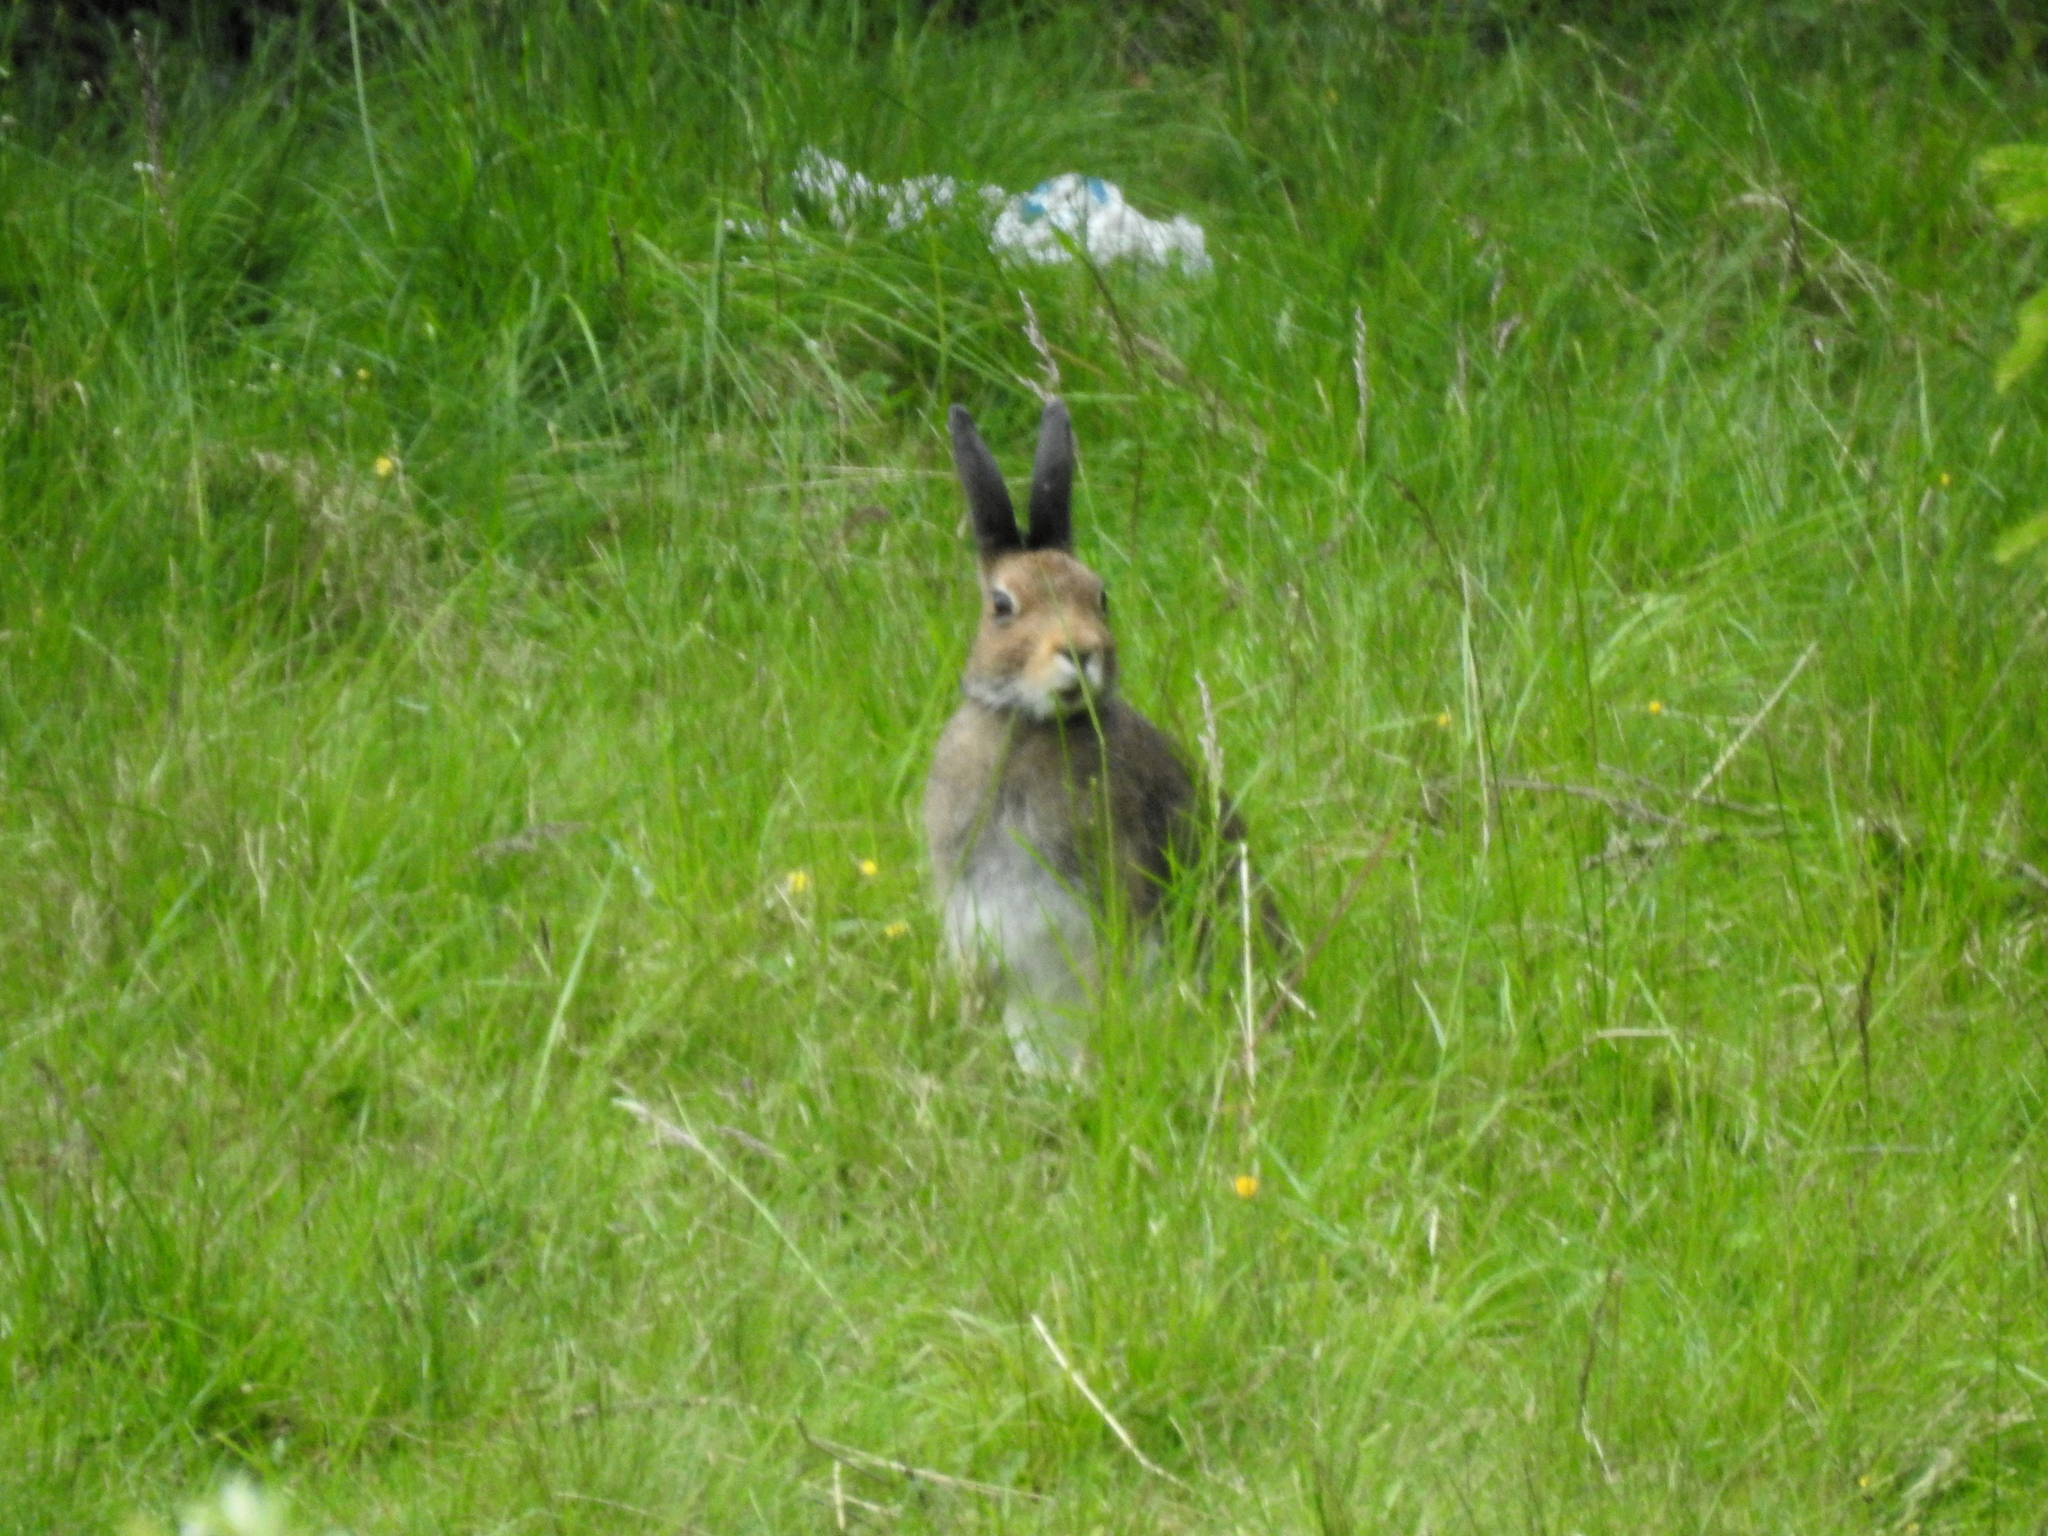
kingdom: Animalia
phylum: Chordata
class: Mammalia
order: Lagomorpha
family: Leporidae
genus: Lepus
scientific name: Lepus timidus
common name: Mountain hare
